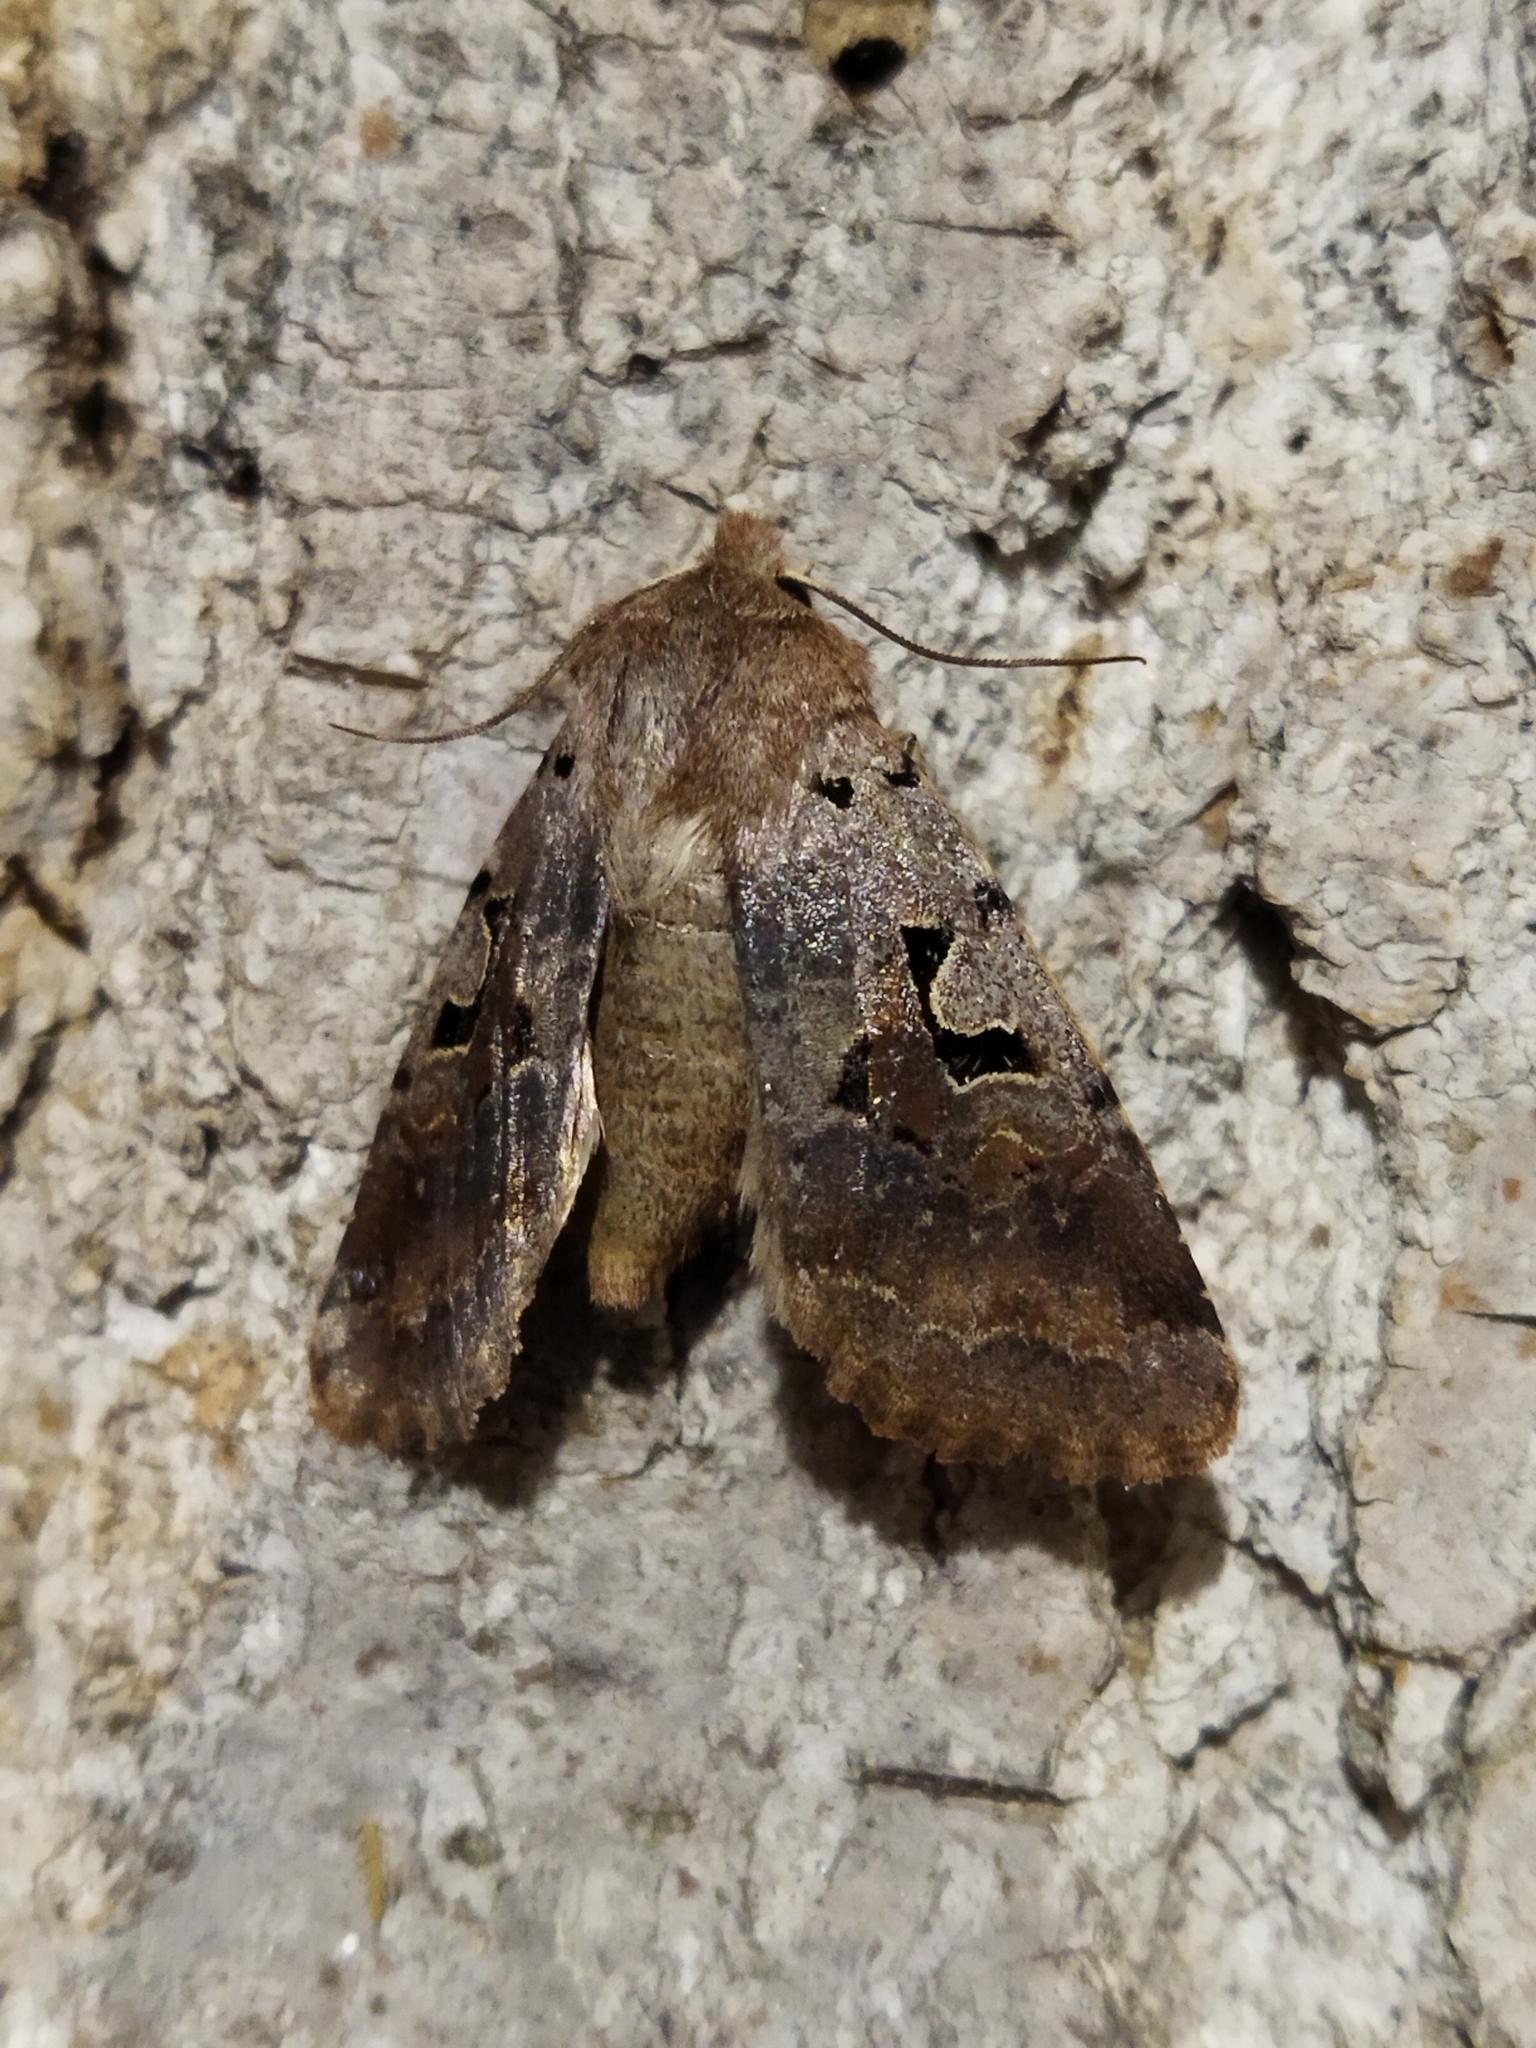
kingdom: Animalia
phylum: Arthropoda
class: Insecta
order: Lepidoptera
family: Noctuidae
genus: Orthosia
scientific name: Orthosia gothica
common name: Hebrew character
